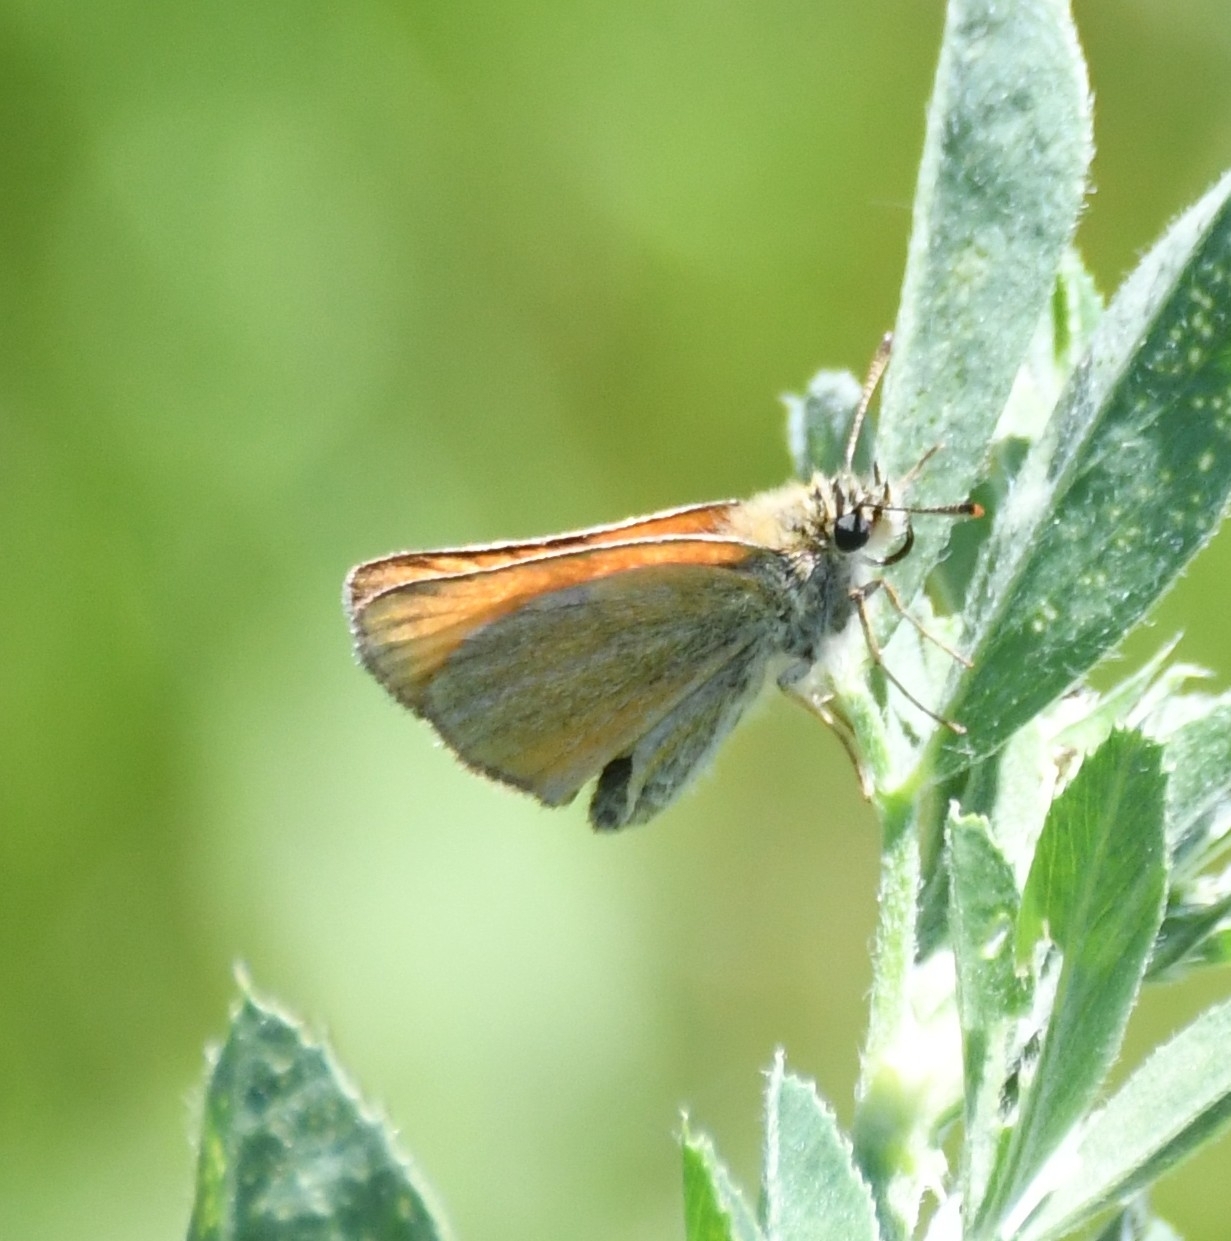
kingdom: Animalia
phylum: Arthropoda
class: Insecta
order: Lepidoptera
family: Hesperiidae
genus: Thymelicus
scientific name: Thymelicus lineola
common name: Essex skipper
